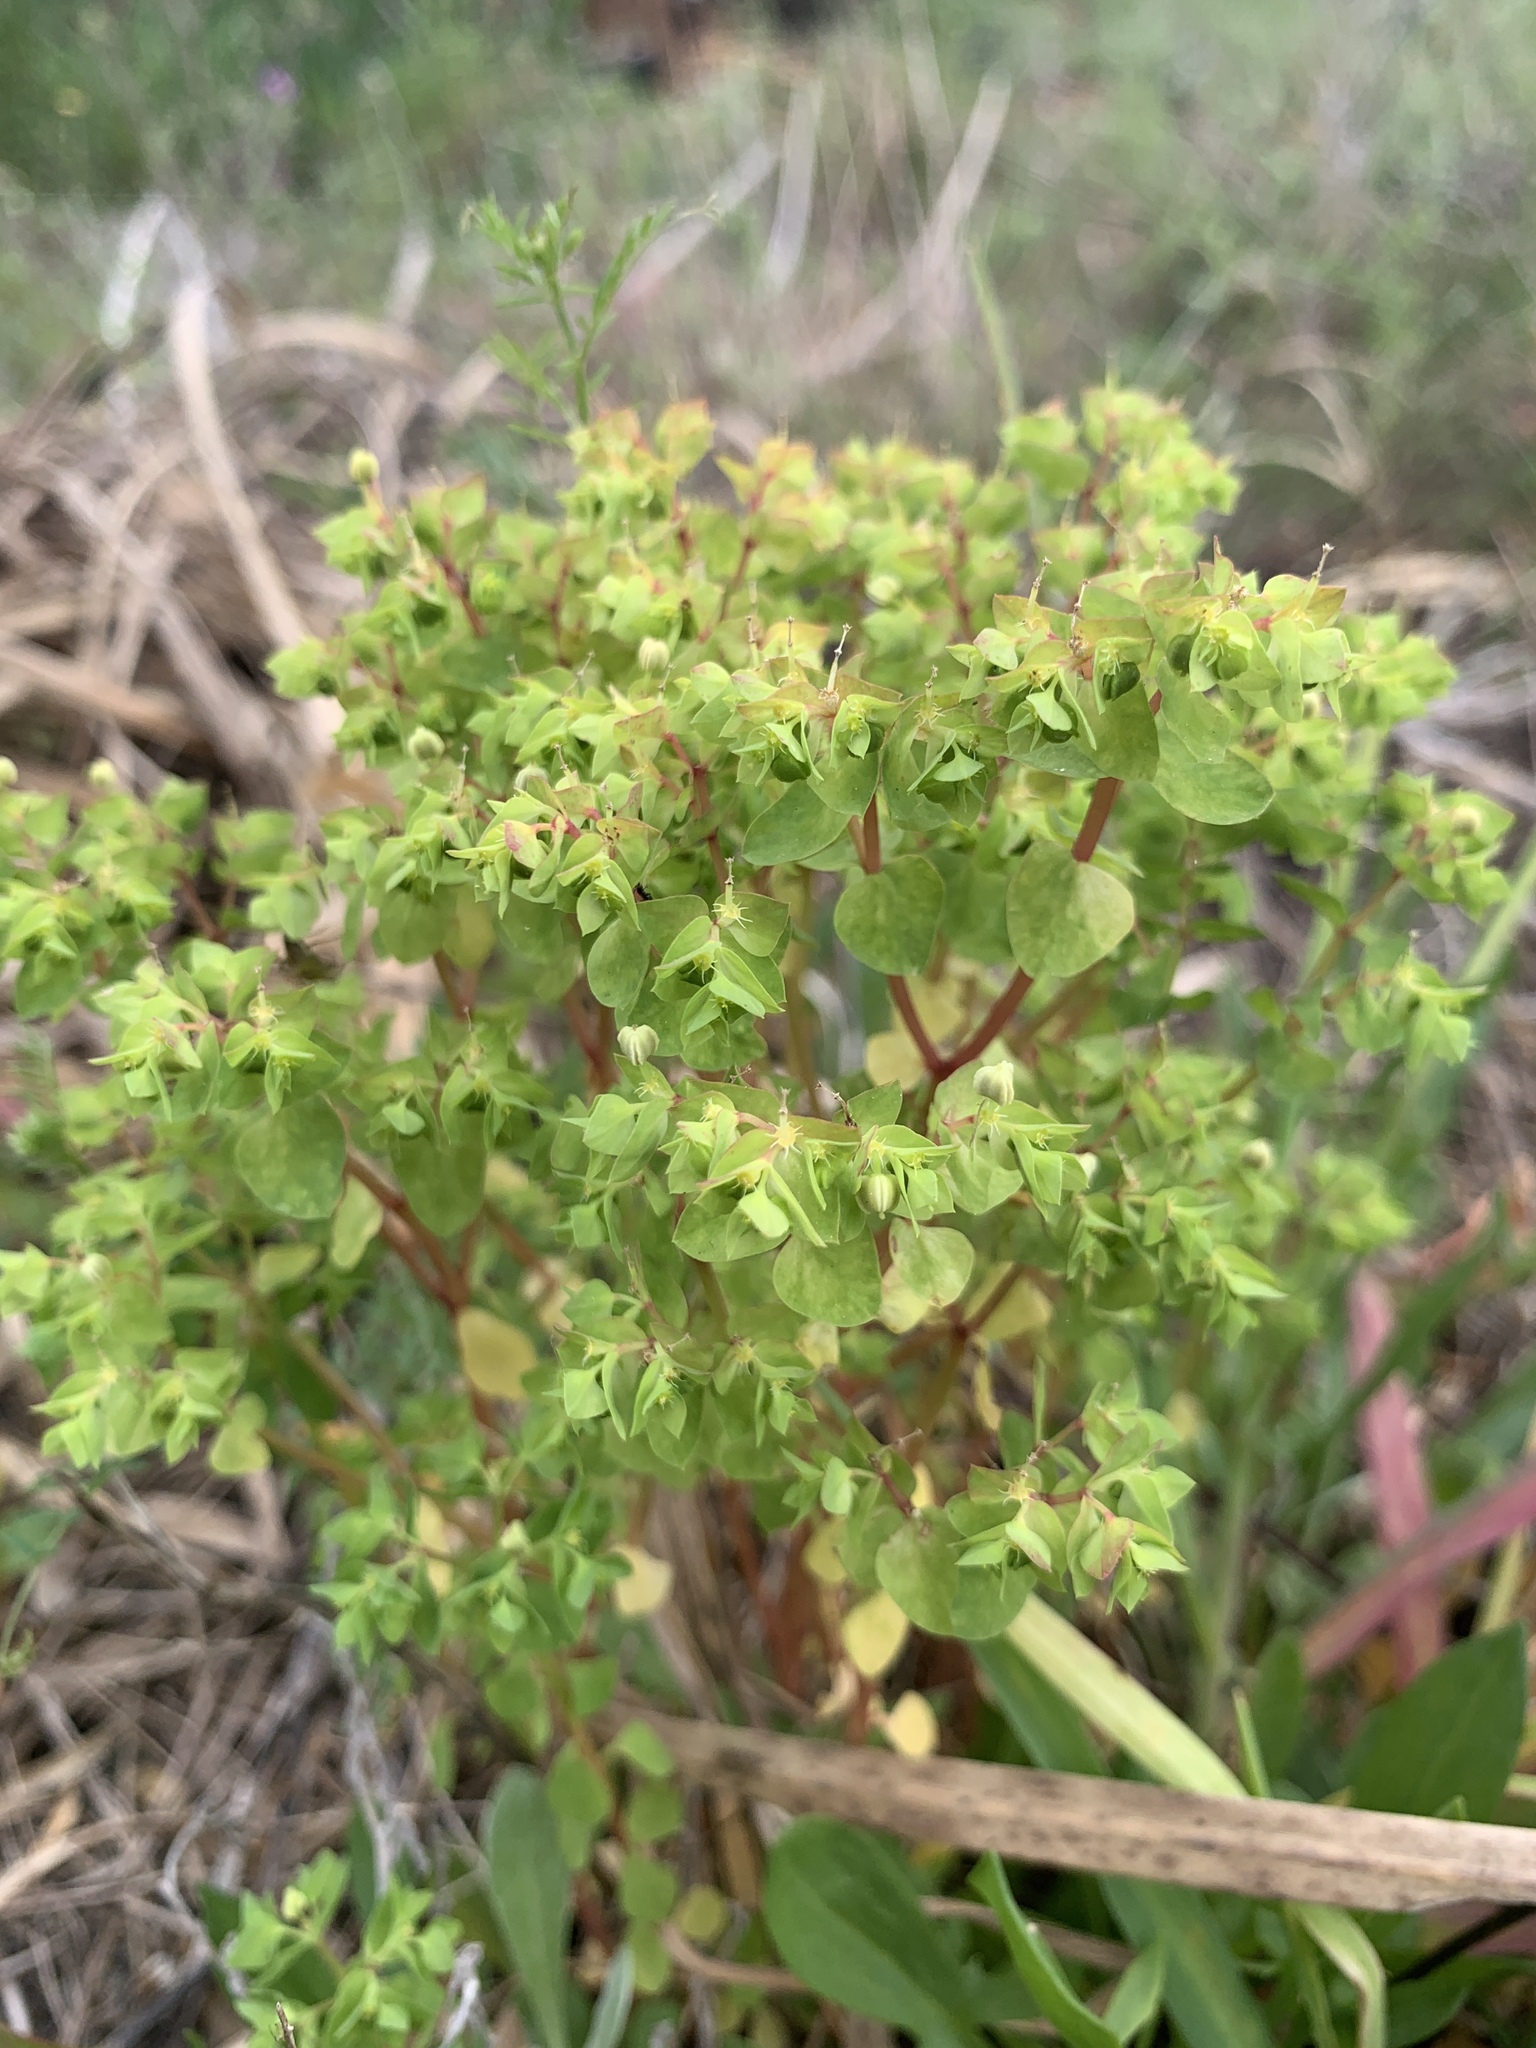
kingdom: Plantae
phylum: Tracheophyta
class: Magnoliopsida
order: Malpighiales
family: Euphorbiaceae
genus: Euphorbia
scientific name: Euphorbia peplus
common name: Petty spurge
